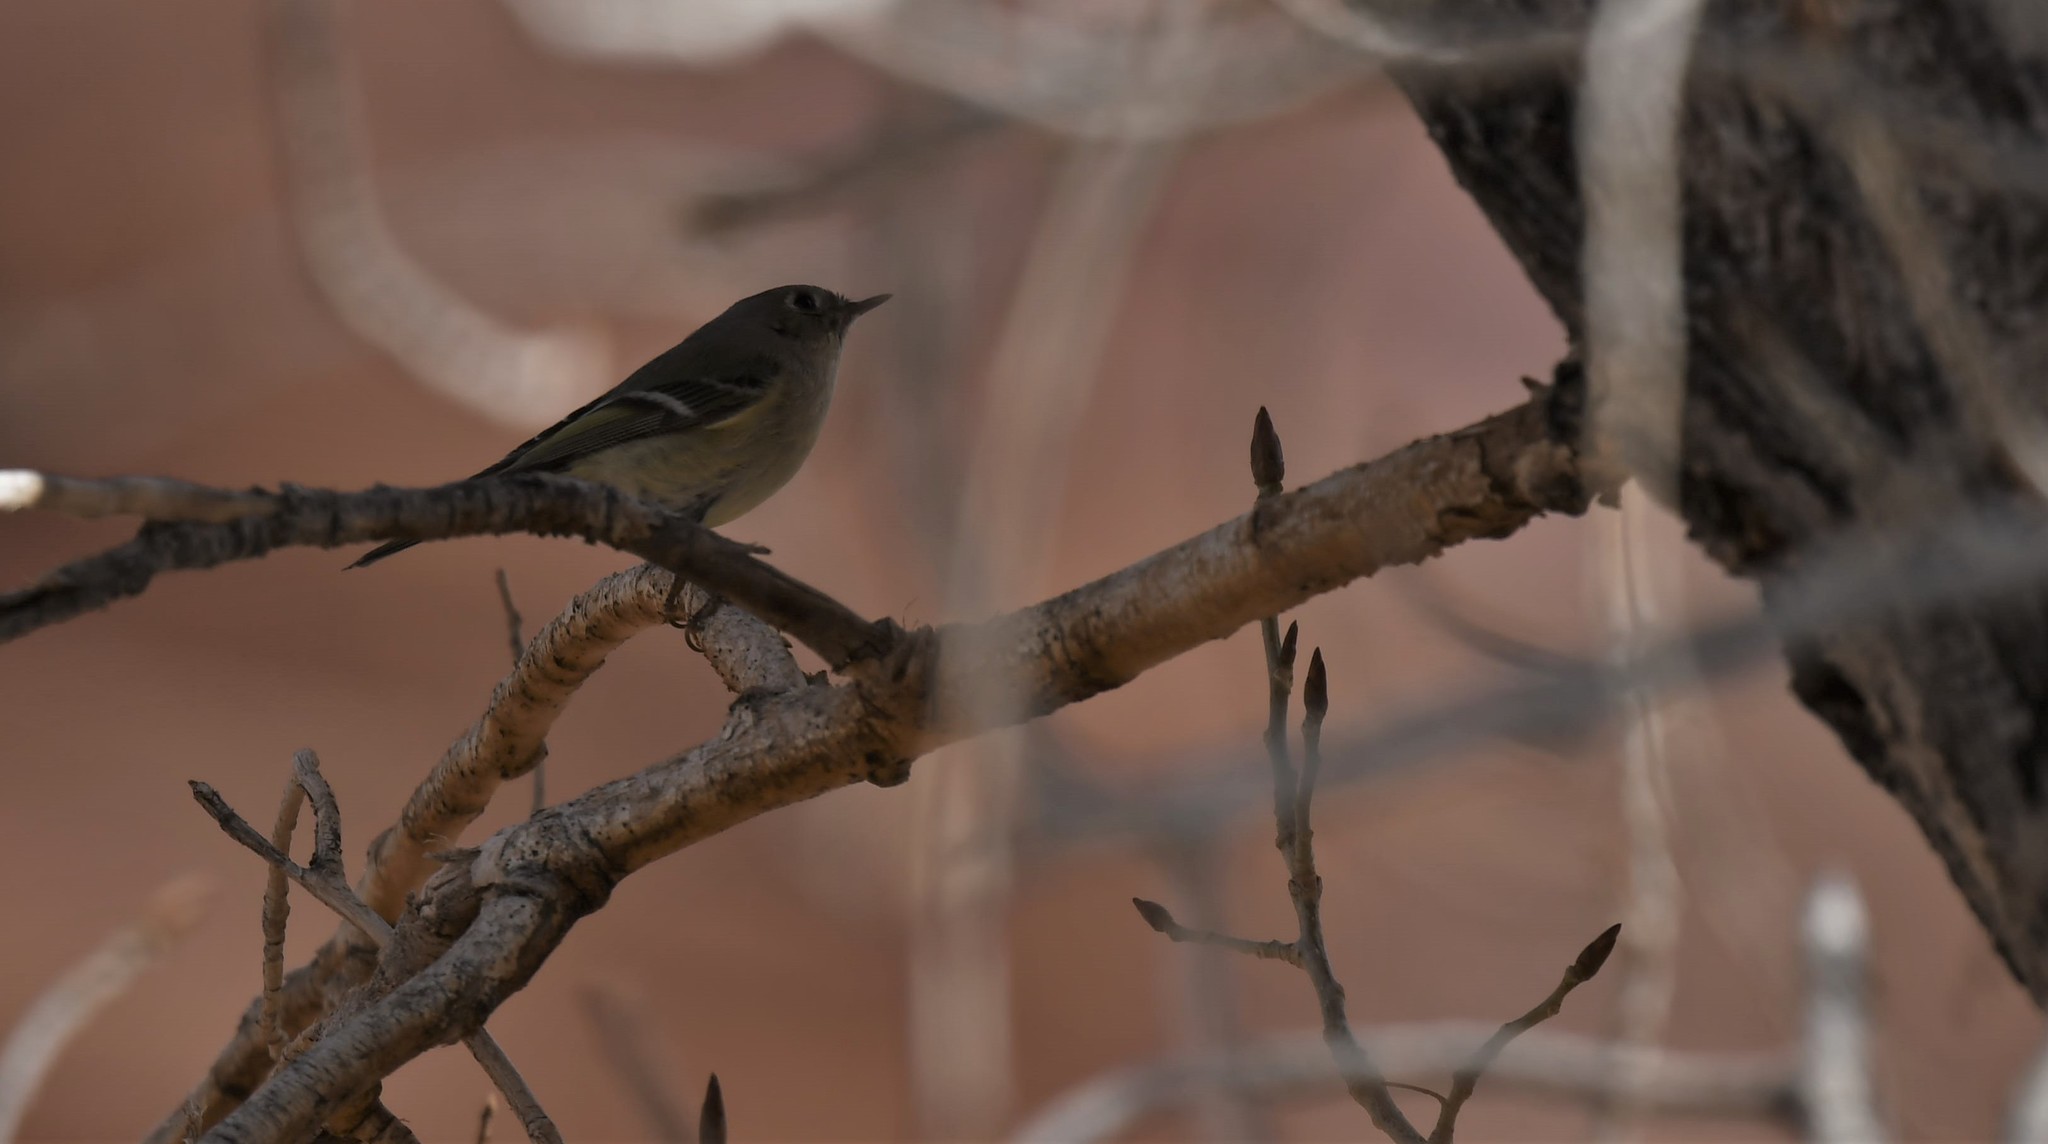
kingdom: Animalia
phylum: Chordata
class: Aves
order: Passeriformes
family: Regulidae
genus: Regulus
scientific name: Regulus calendula
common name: Ruby-crowned kinglet
